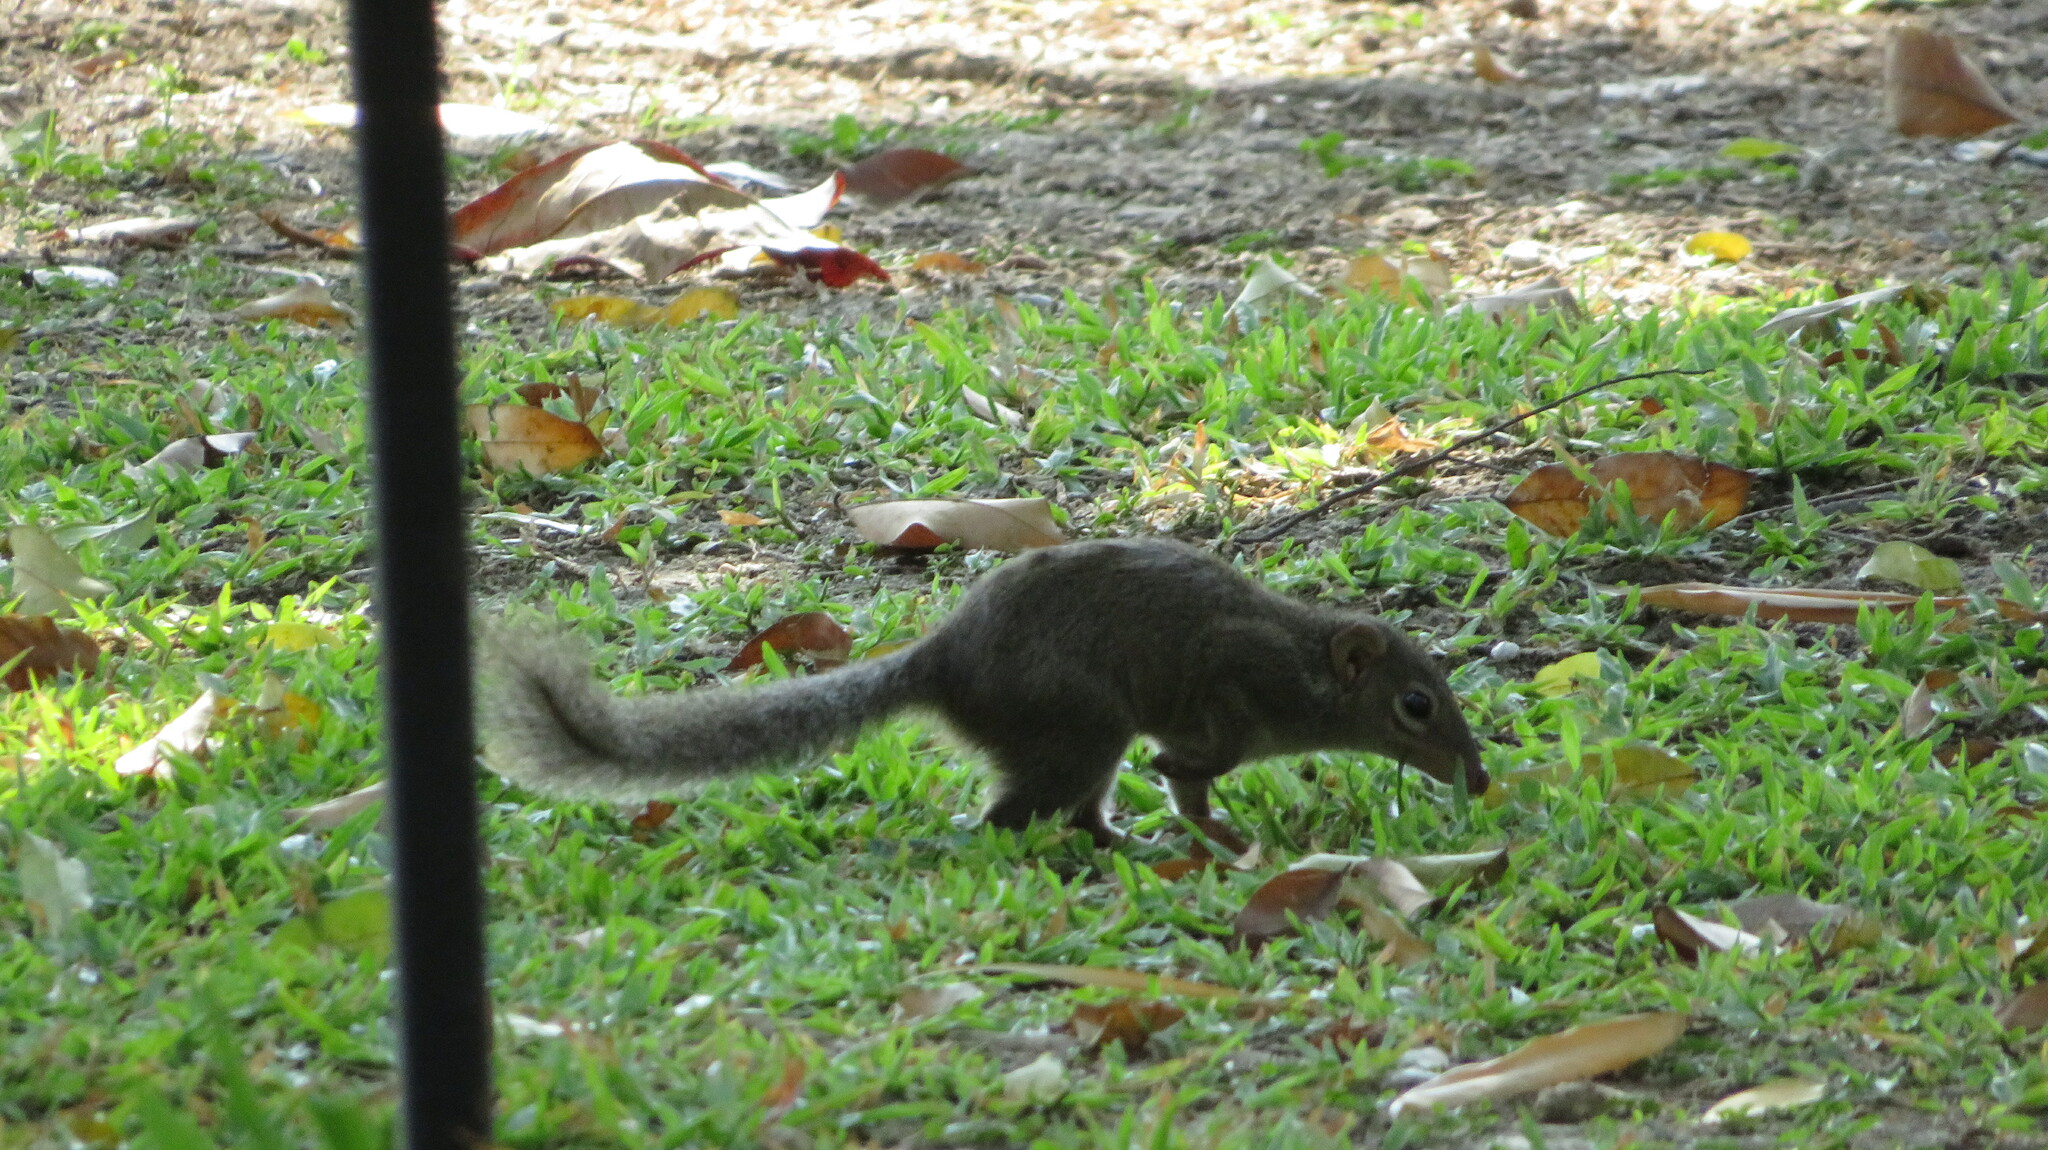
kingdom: Animalia
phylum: Chordata
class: Mammalia
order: Scandentia
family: Tupaiidae
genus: Tupaia
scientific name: Tupaia belangeri
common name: Northern treeshrew
